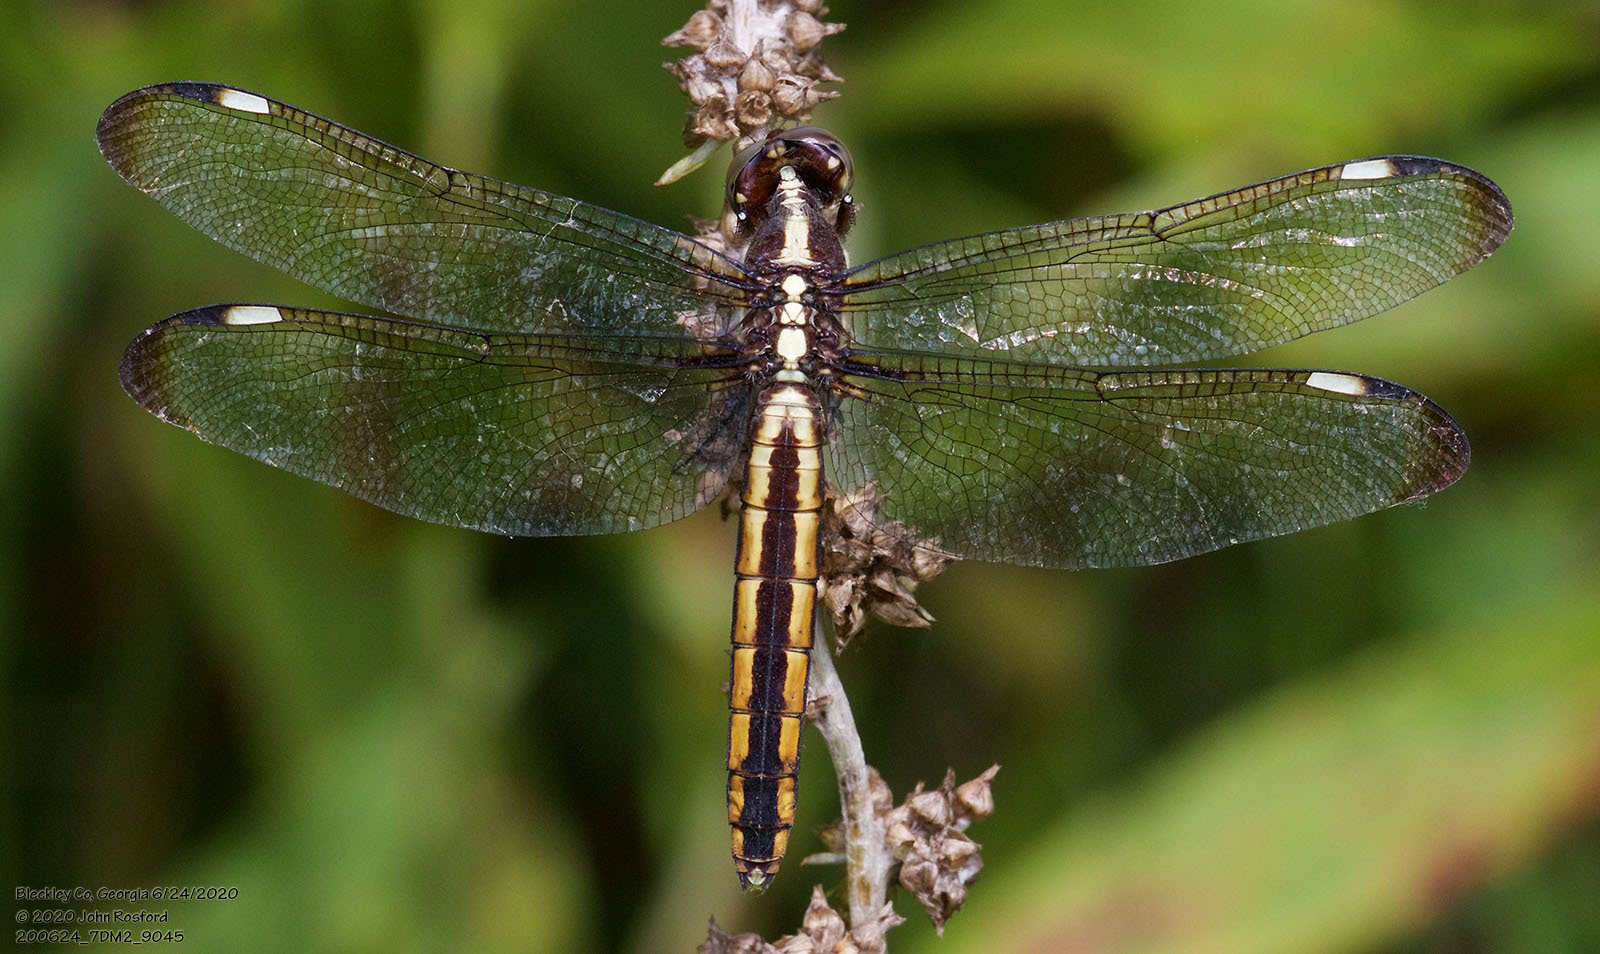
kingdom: Animalia
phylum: Arthropoda
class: Insecta
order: Odonata
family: Libellulidae
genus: Libellula
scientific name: Libellula cyanea
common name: Spangled skimmer
